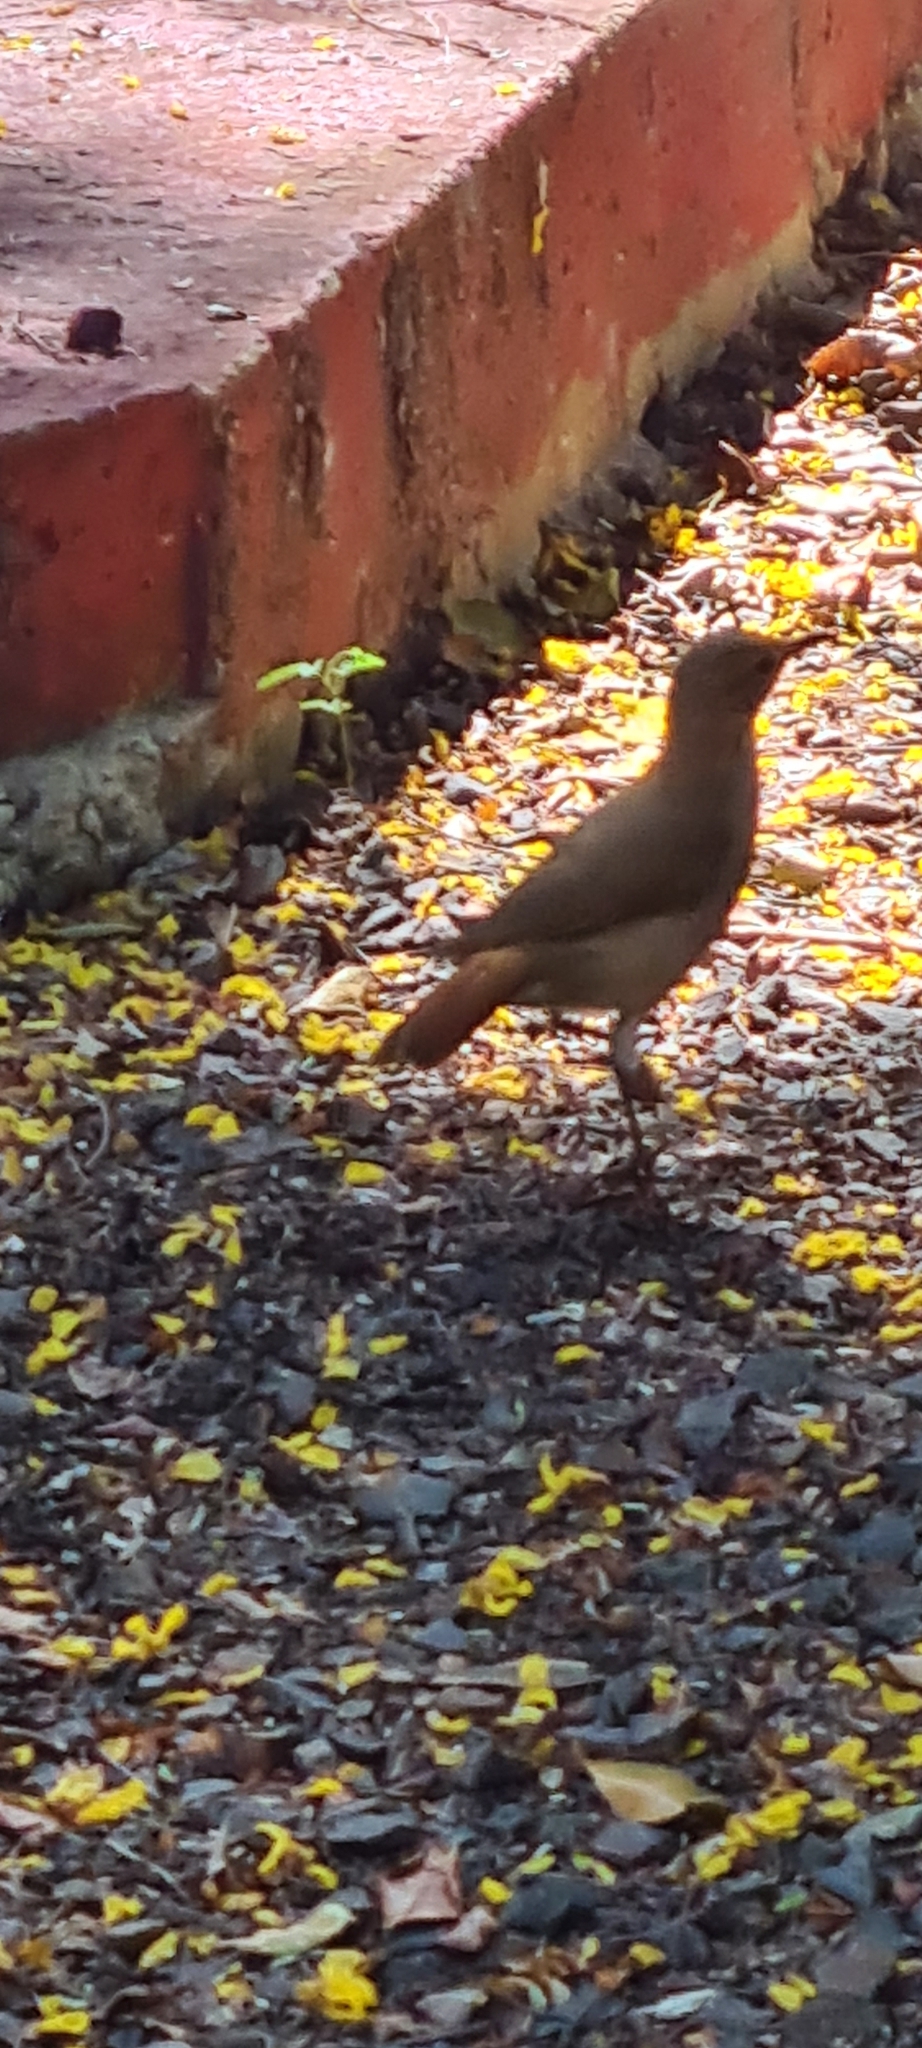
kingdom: Animalia
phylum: Chordata
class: Aves
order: Passeriformes
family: Furnariidae
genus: Furnarius
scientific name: Furnarius rufus
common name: Rufous hornero
